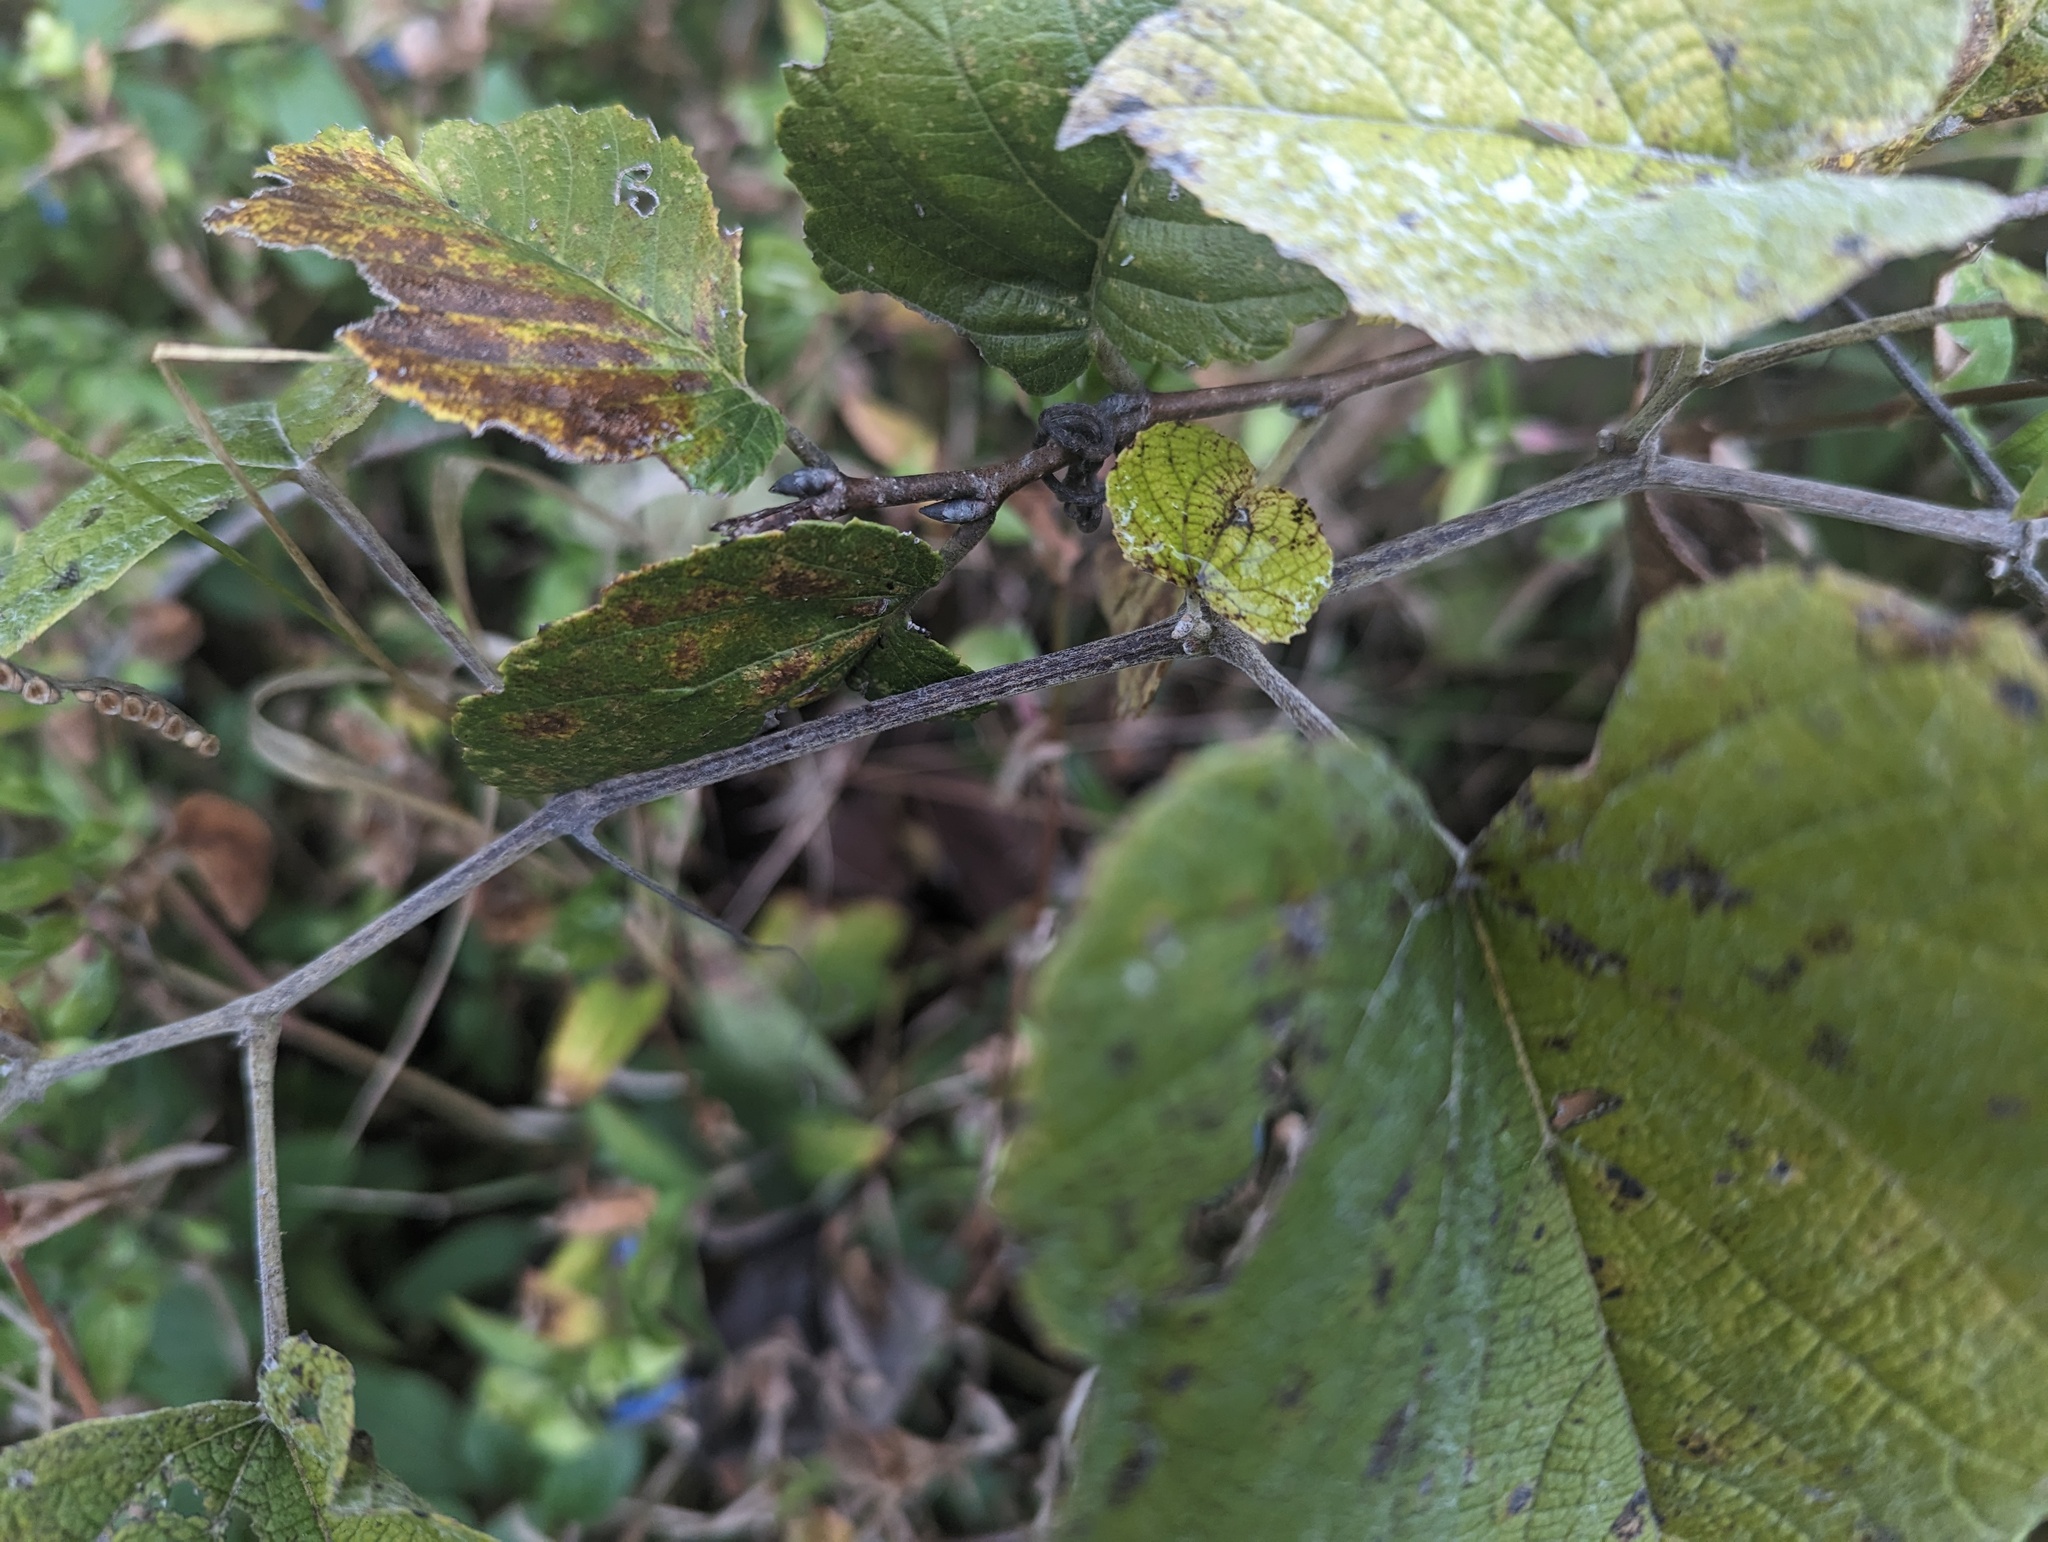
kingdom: Plantae
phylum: Tracheophyta
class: Magnoliopsida
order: Vitales
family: Vitaceae
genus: Vitis
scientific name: Vitis cinerea
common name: Ashy grape
